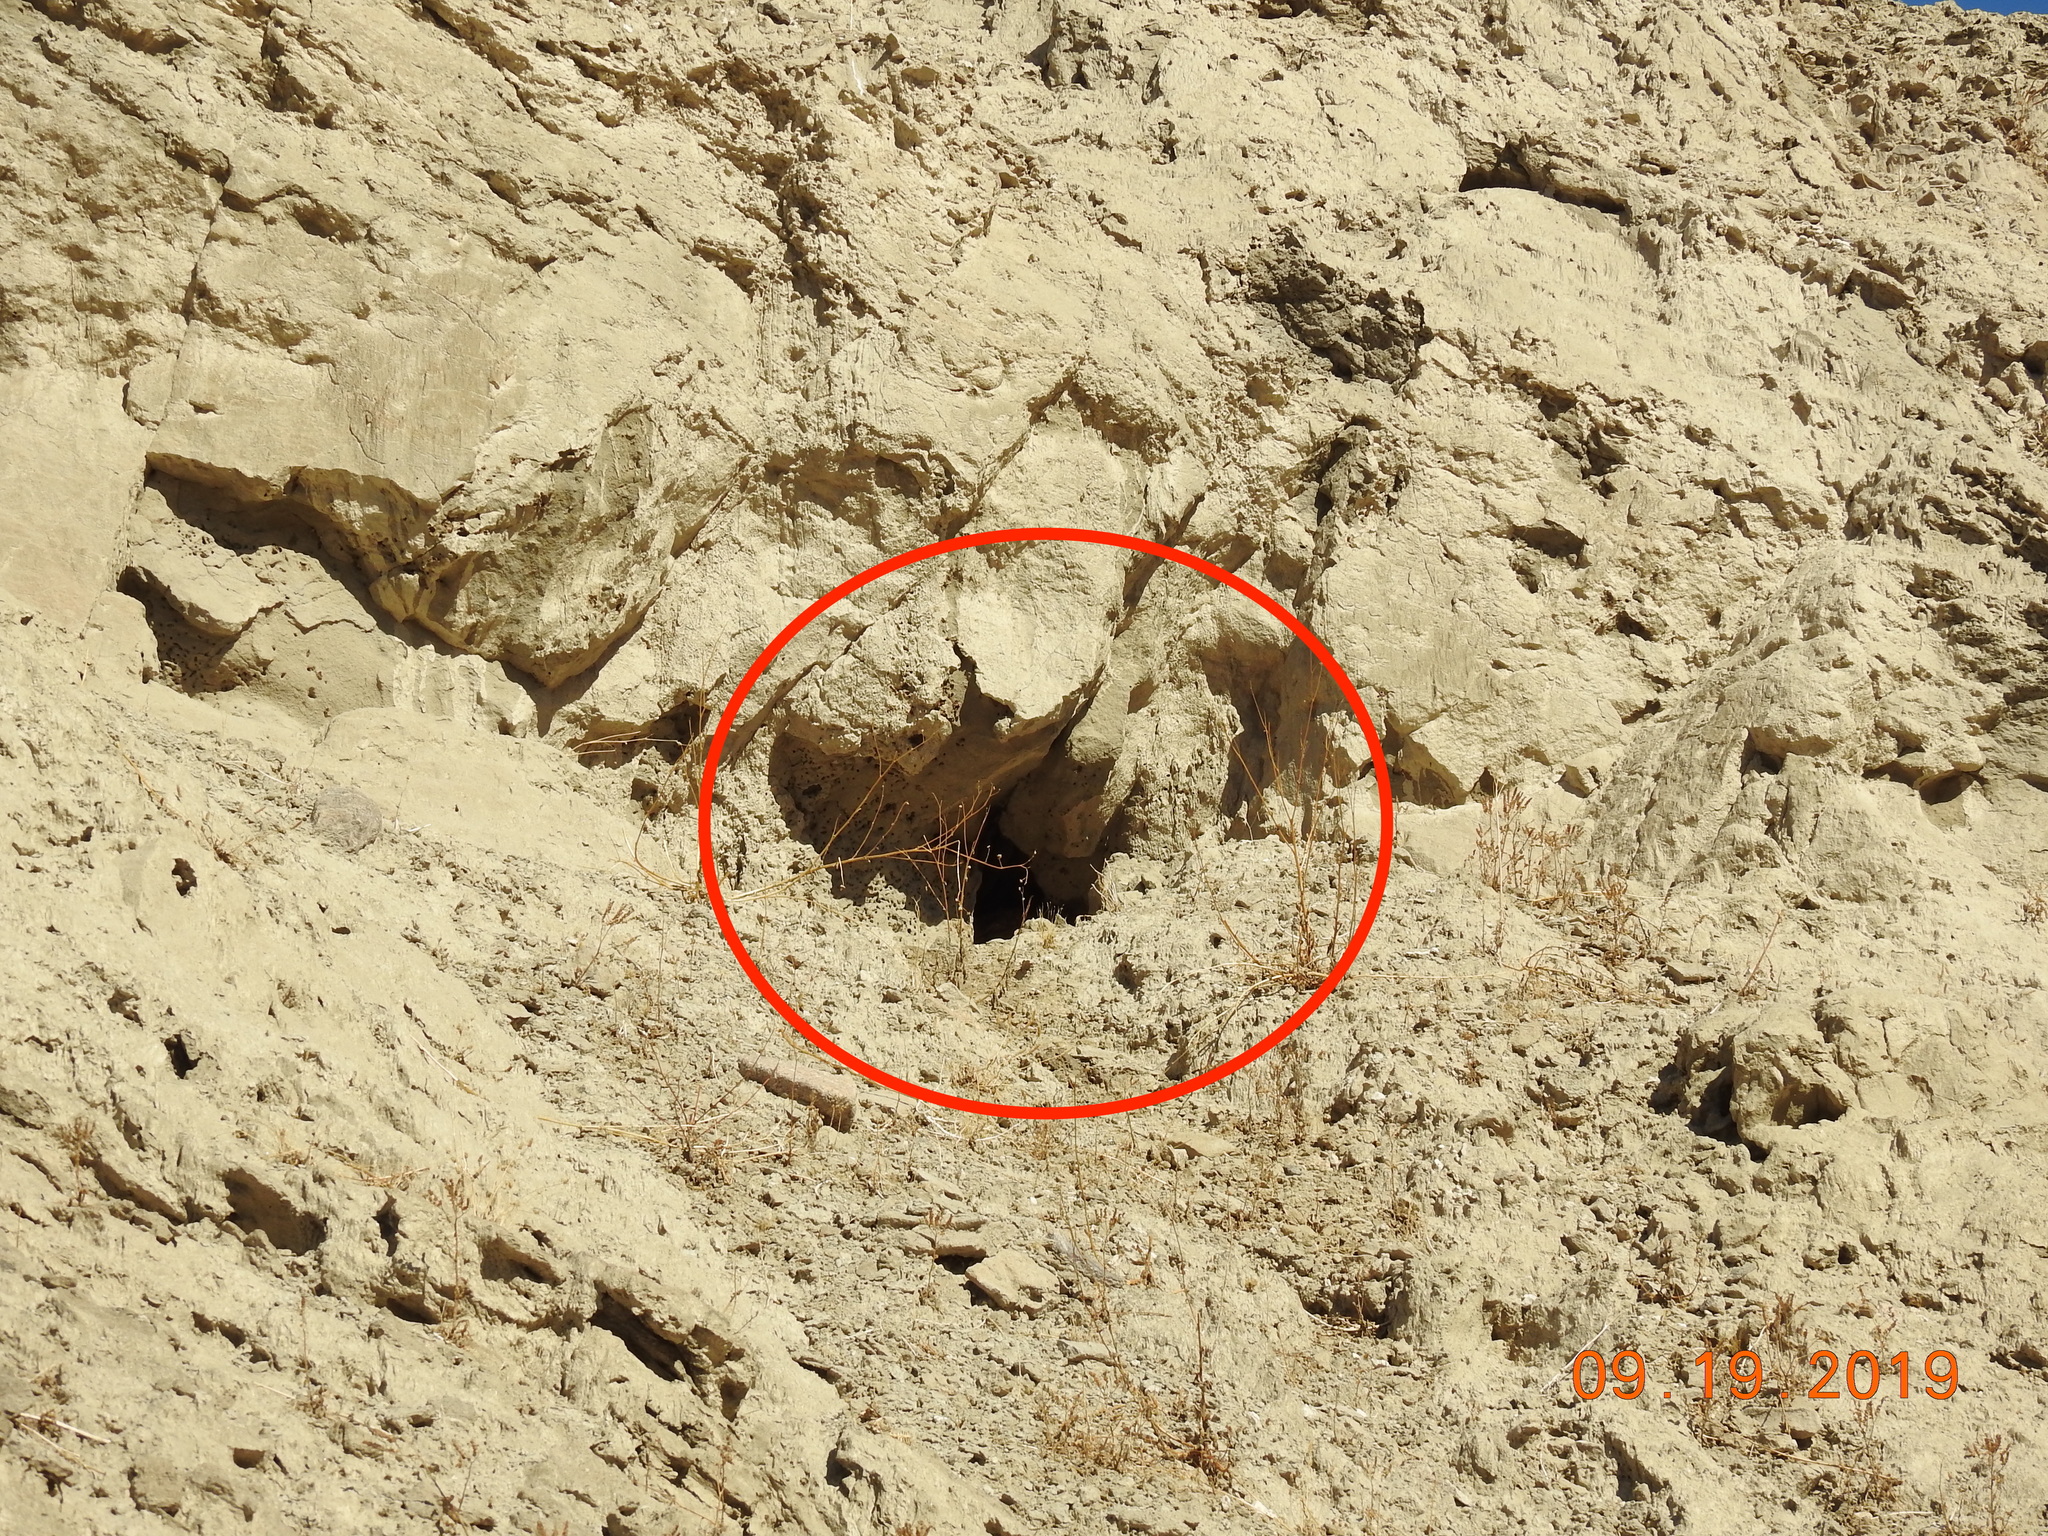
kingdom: Animalia
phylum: Arthropoda
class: Insecta
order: Hymenoptera
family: Apidae
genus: Apis
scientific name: Apis mellifera
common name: Honey bee
